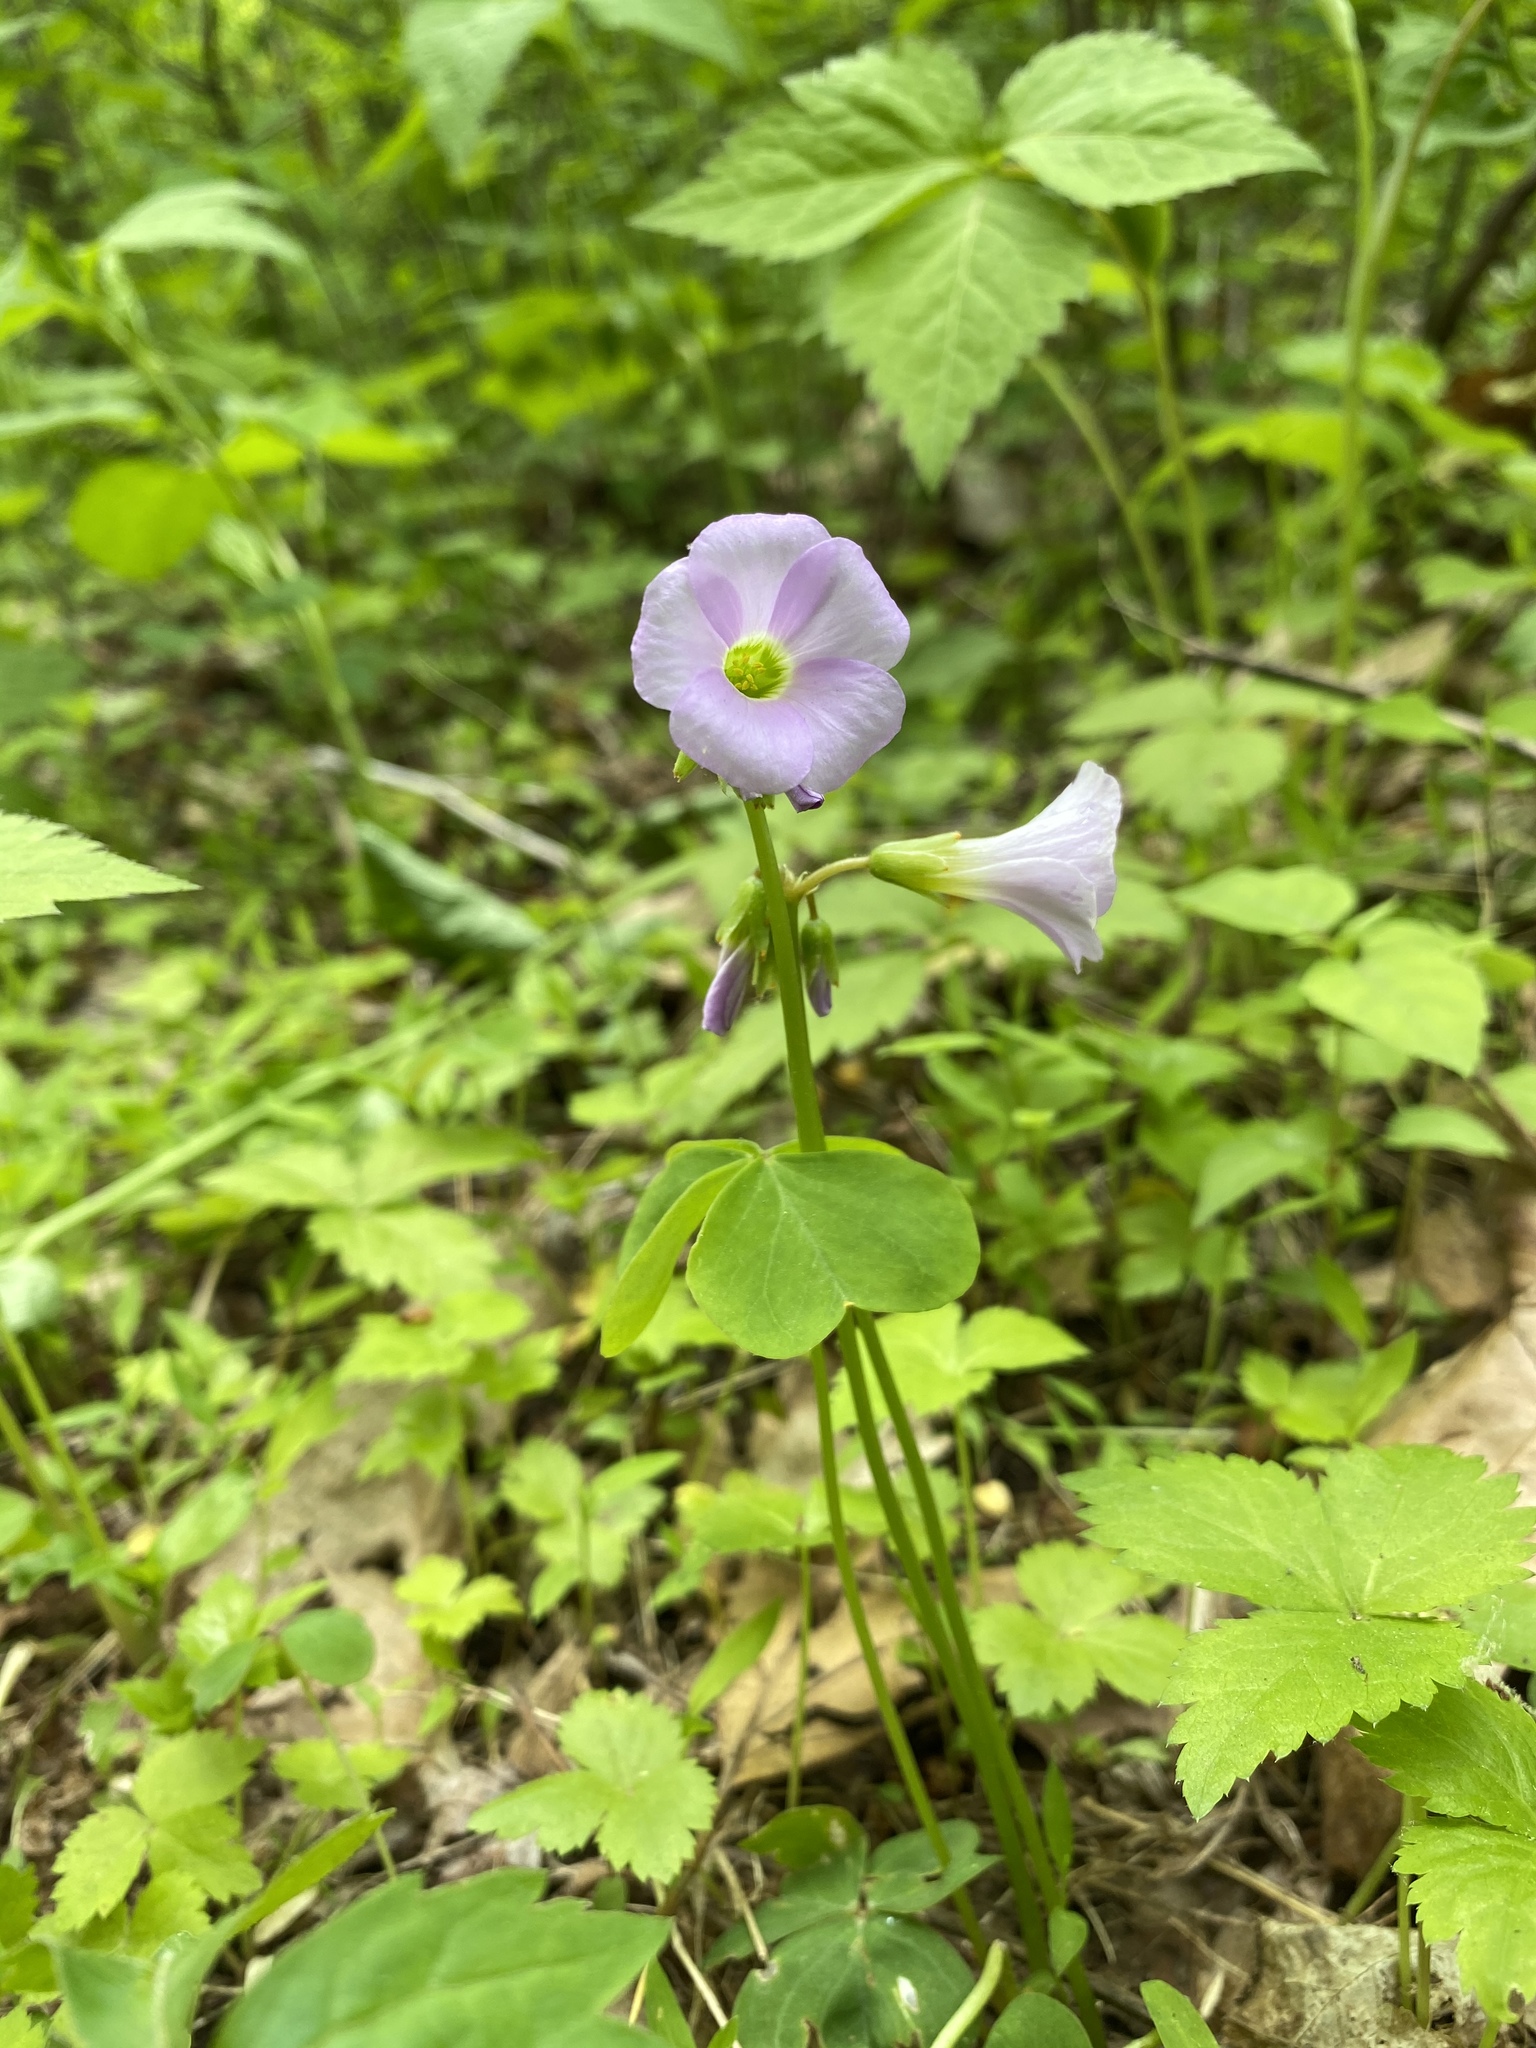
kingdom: Plantae
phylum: Tracheophyta
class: Magnoliopsida
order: Oxalidales
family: Oxalidaceae
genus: Oxalis
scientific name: Oxalis violacea
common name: Violet wood-sorrel
